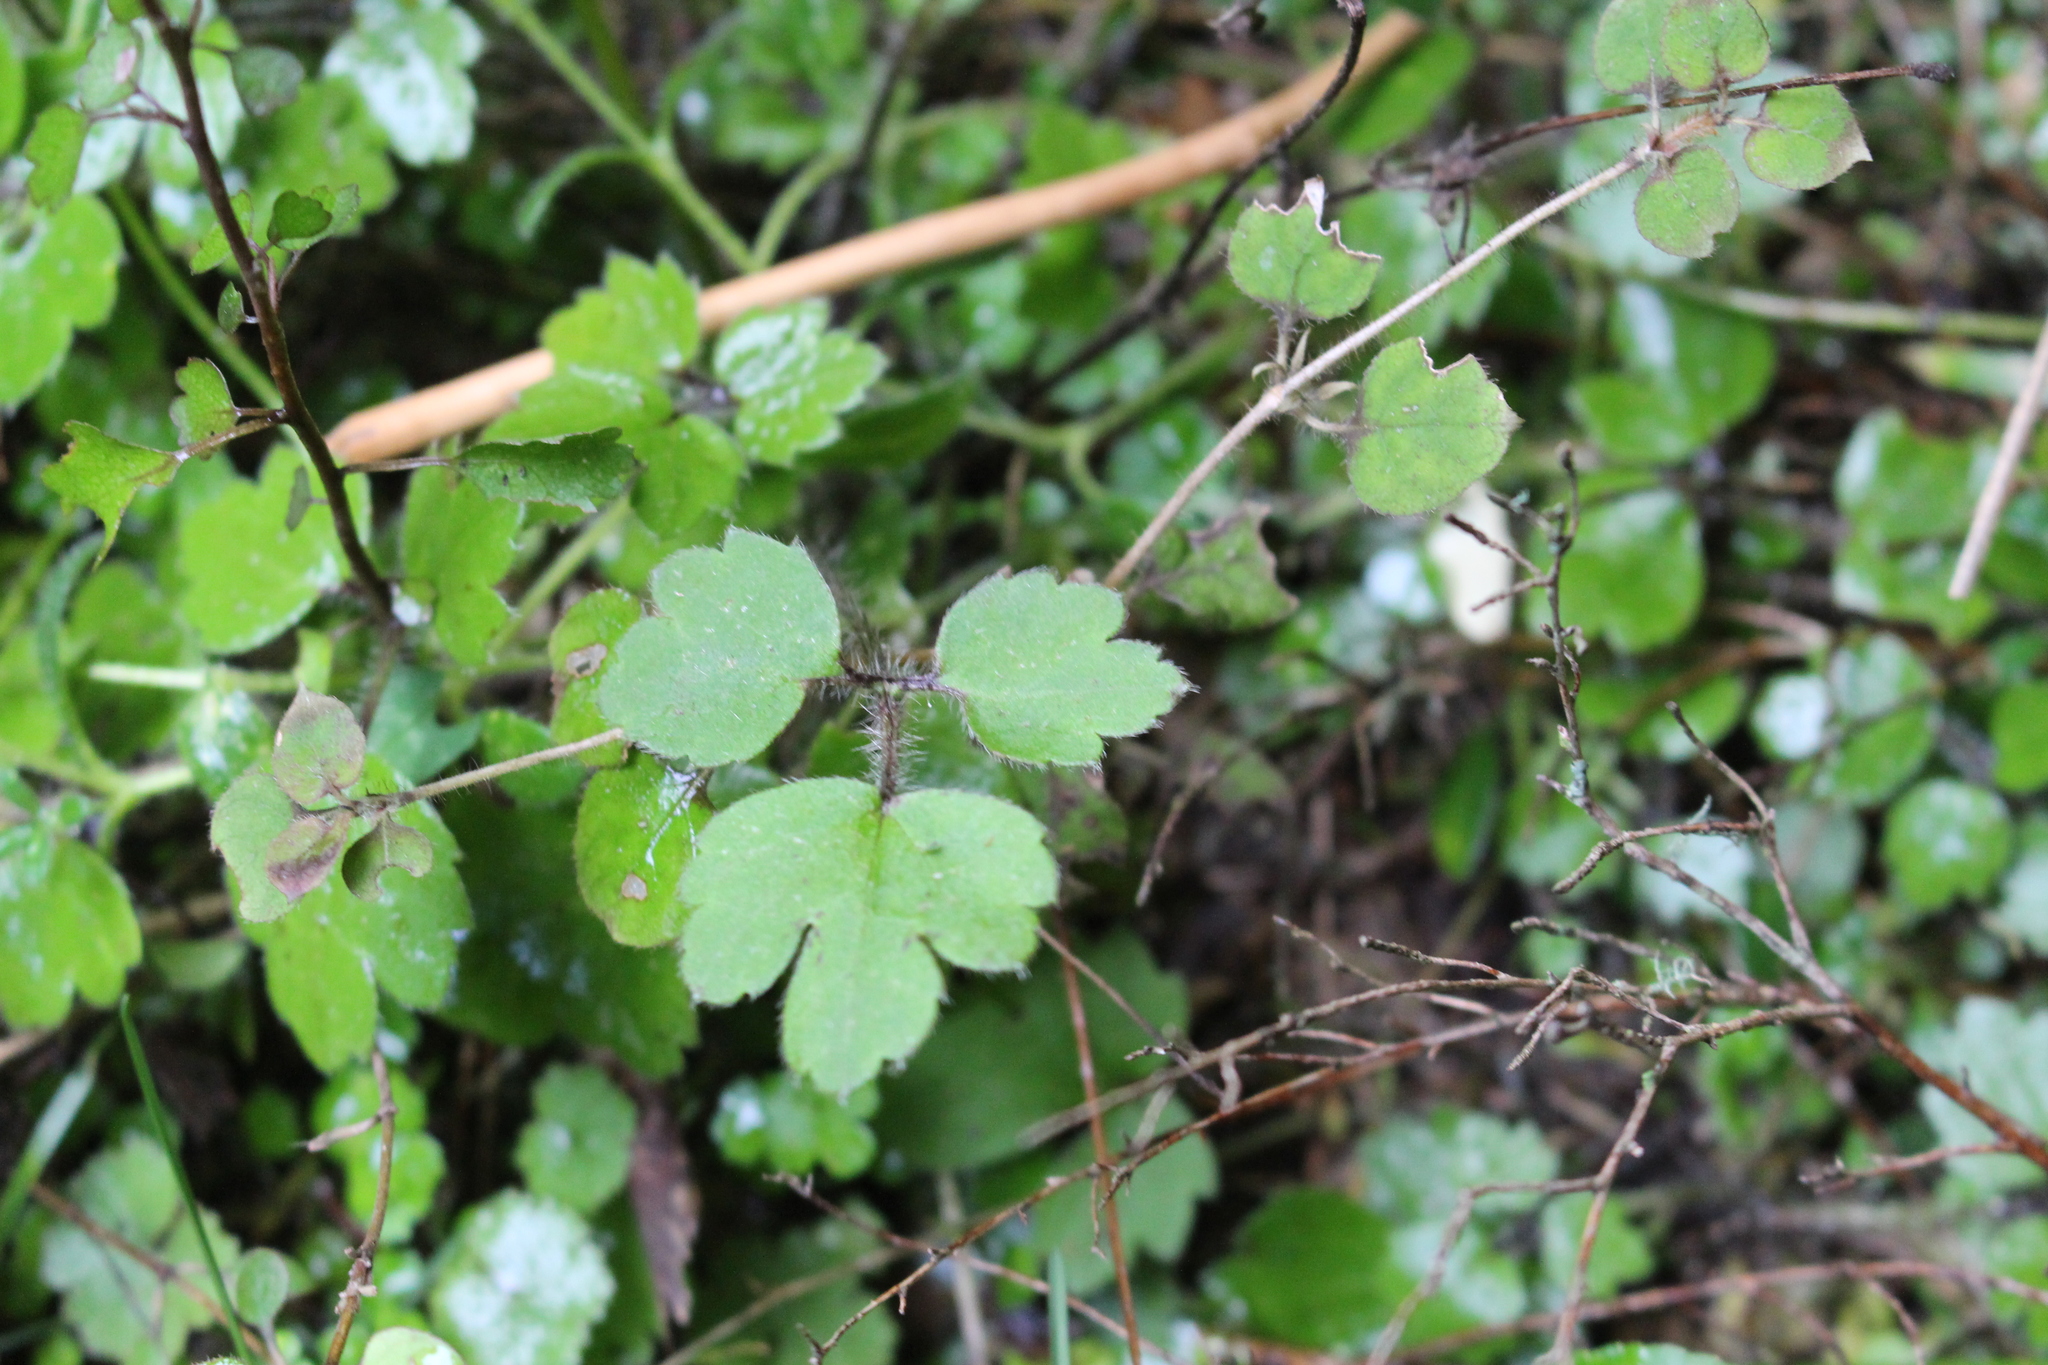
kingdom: Plantae
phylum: Tracheophyta
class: Magnoliopsida
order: Ranunculales
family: Ranunculaceae
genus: Ranunculus
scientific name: Ranunculus reflexus
